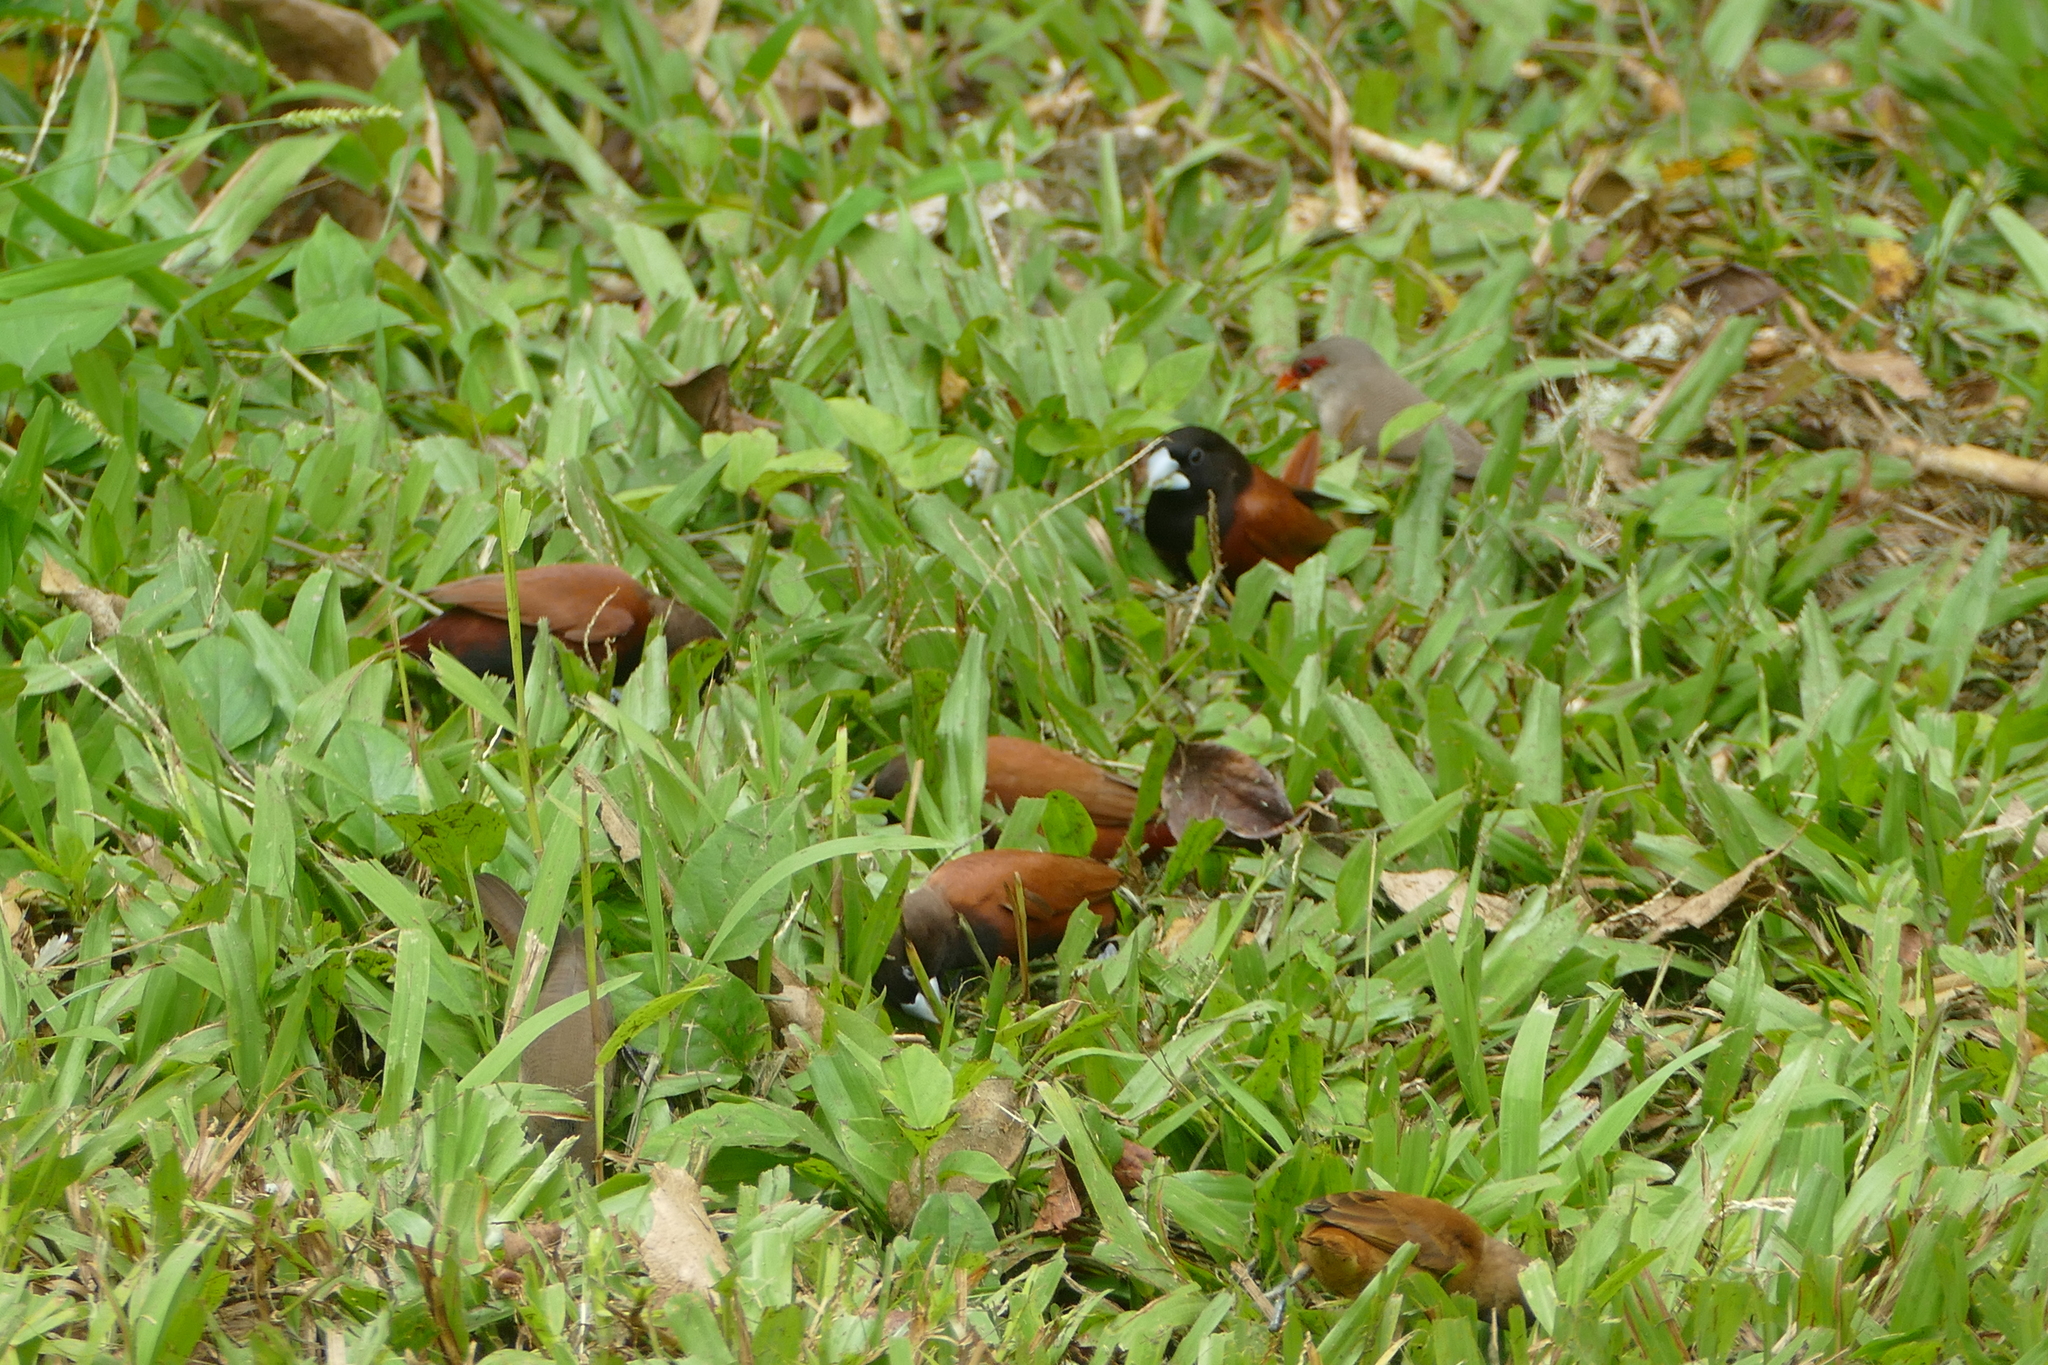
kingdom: Animalia
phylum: Chordata
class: Aves
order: Passeriformes
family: Estrildidae
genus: Lonchura
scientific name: Lonchura atricapilla
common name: Chestnut munia
